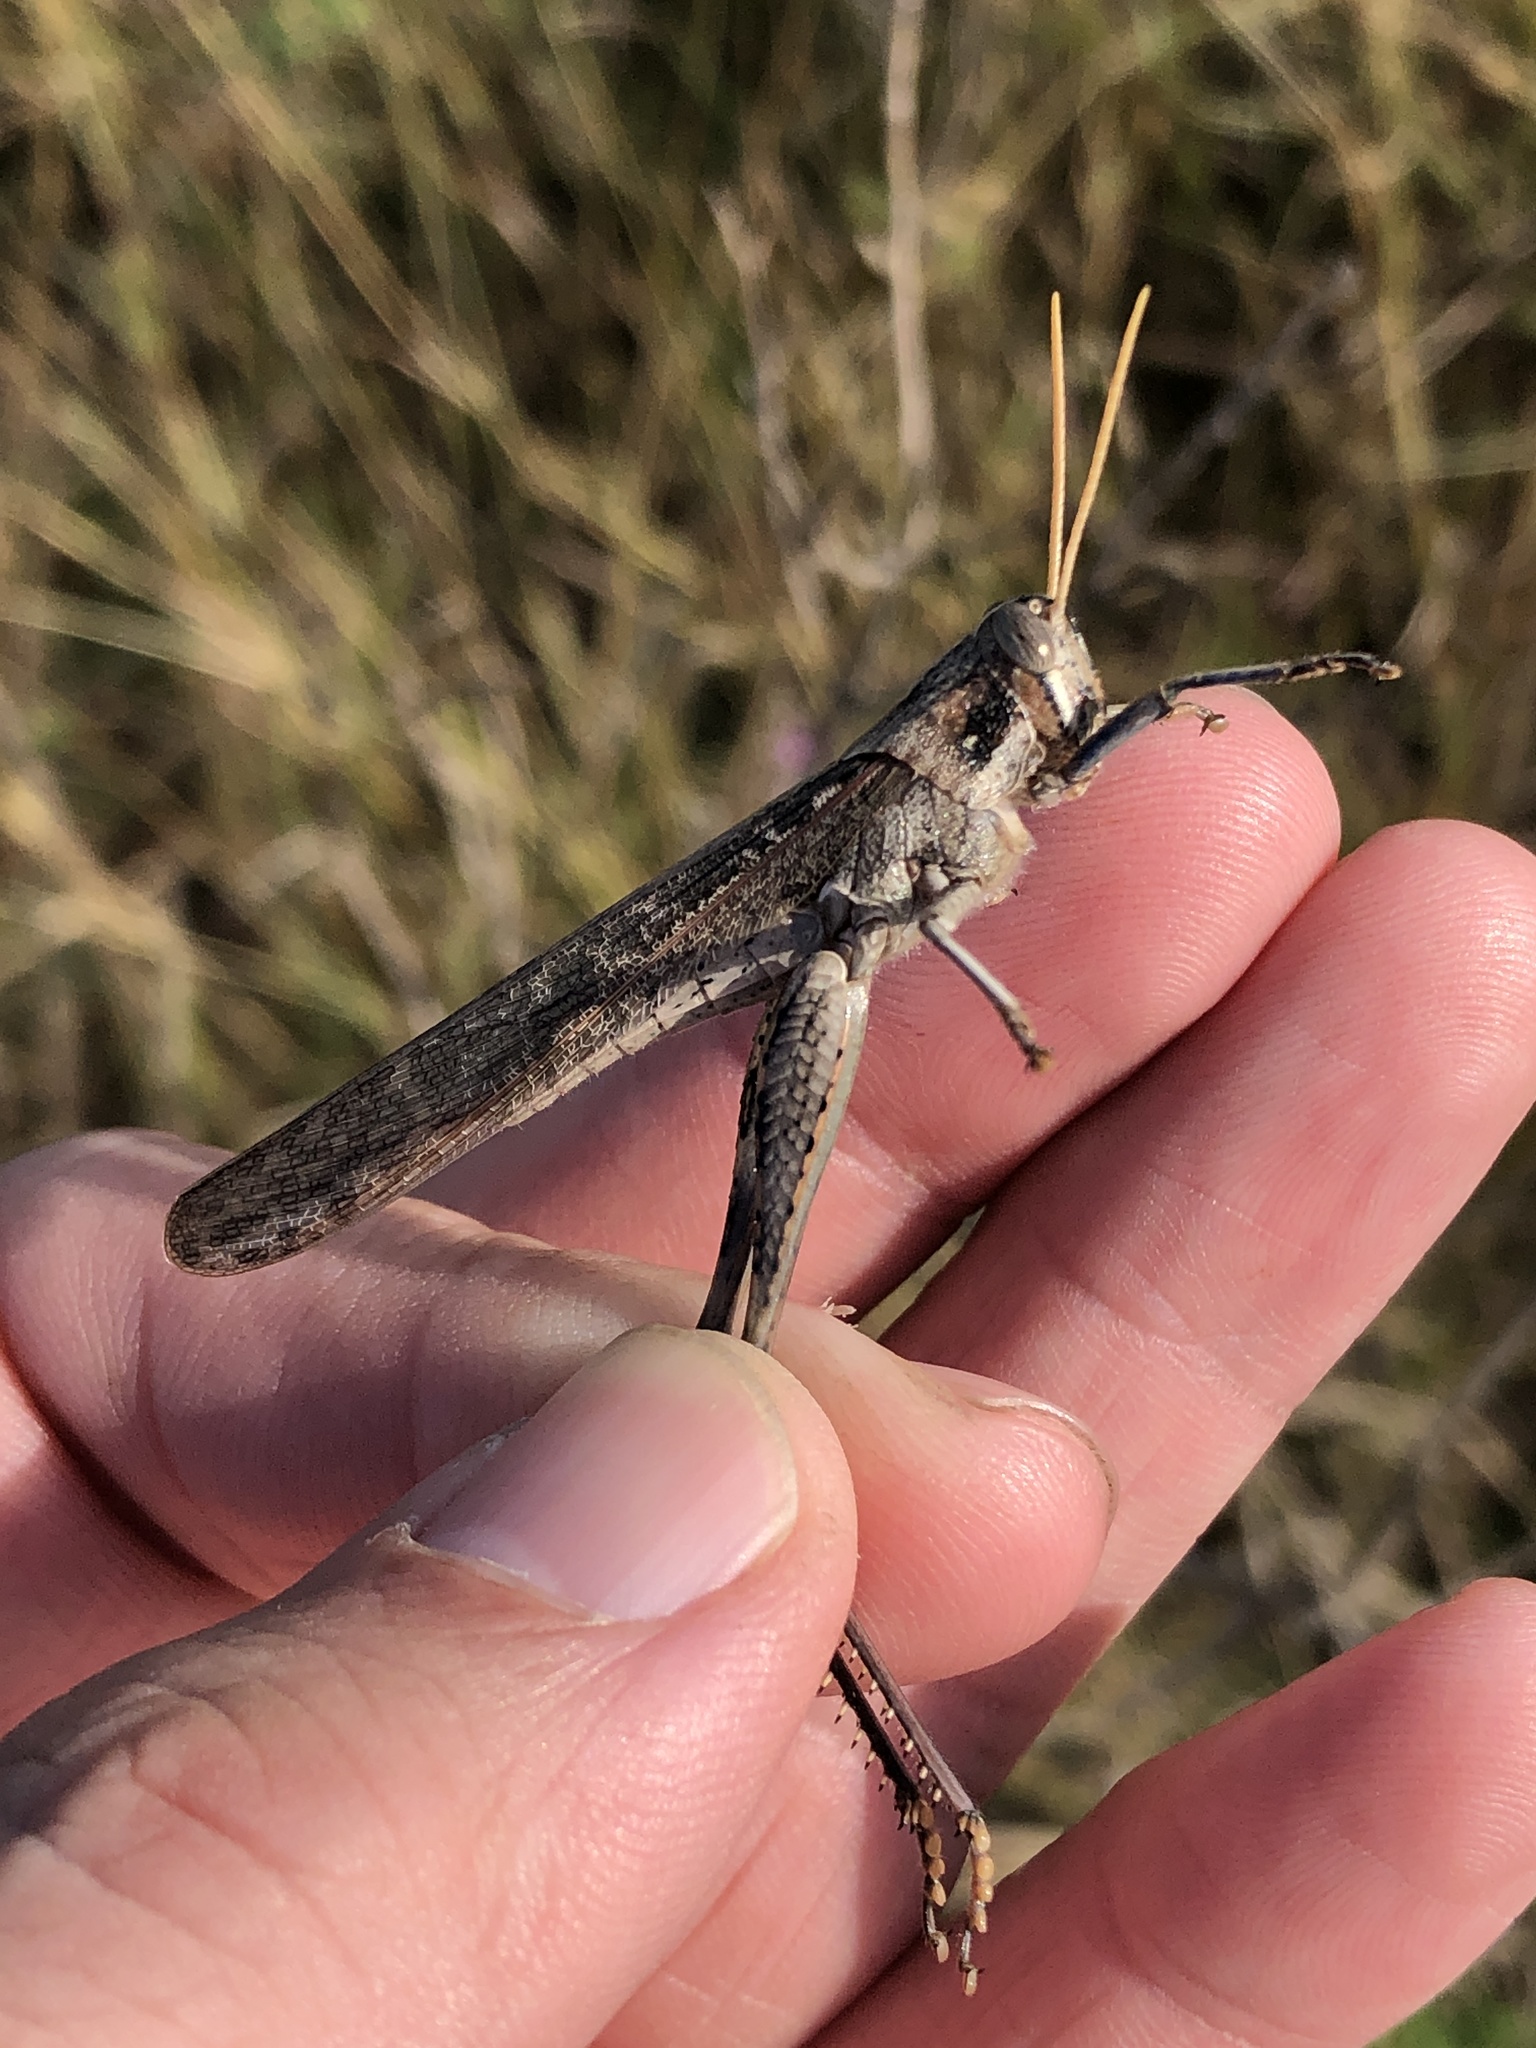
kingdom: Animalia
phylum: Arthropoda
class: Insecta
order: Orthoptera
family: Acrididae
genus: Schistocerca
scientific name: Schistocerca nitens
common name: Vagrant grasshopper
